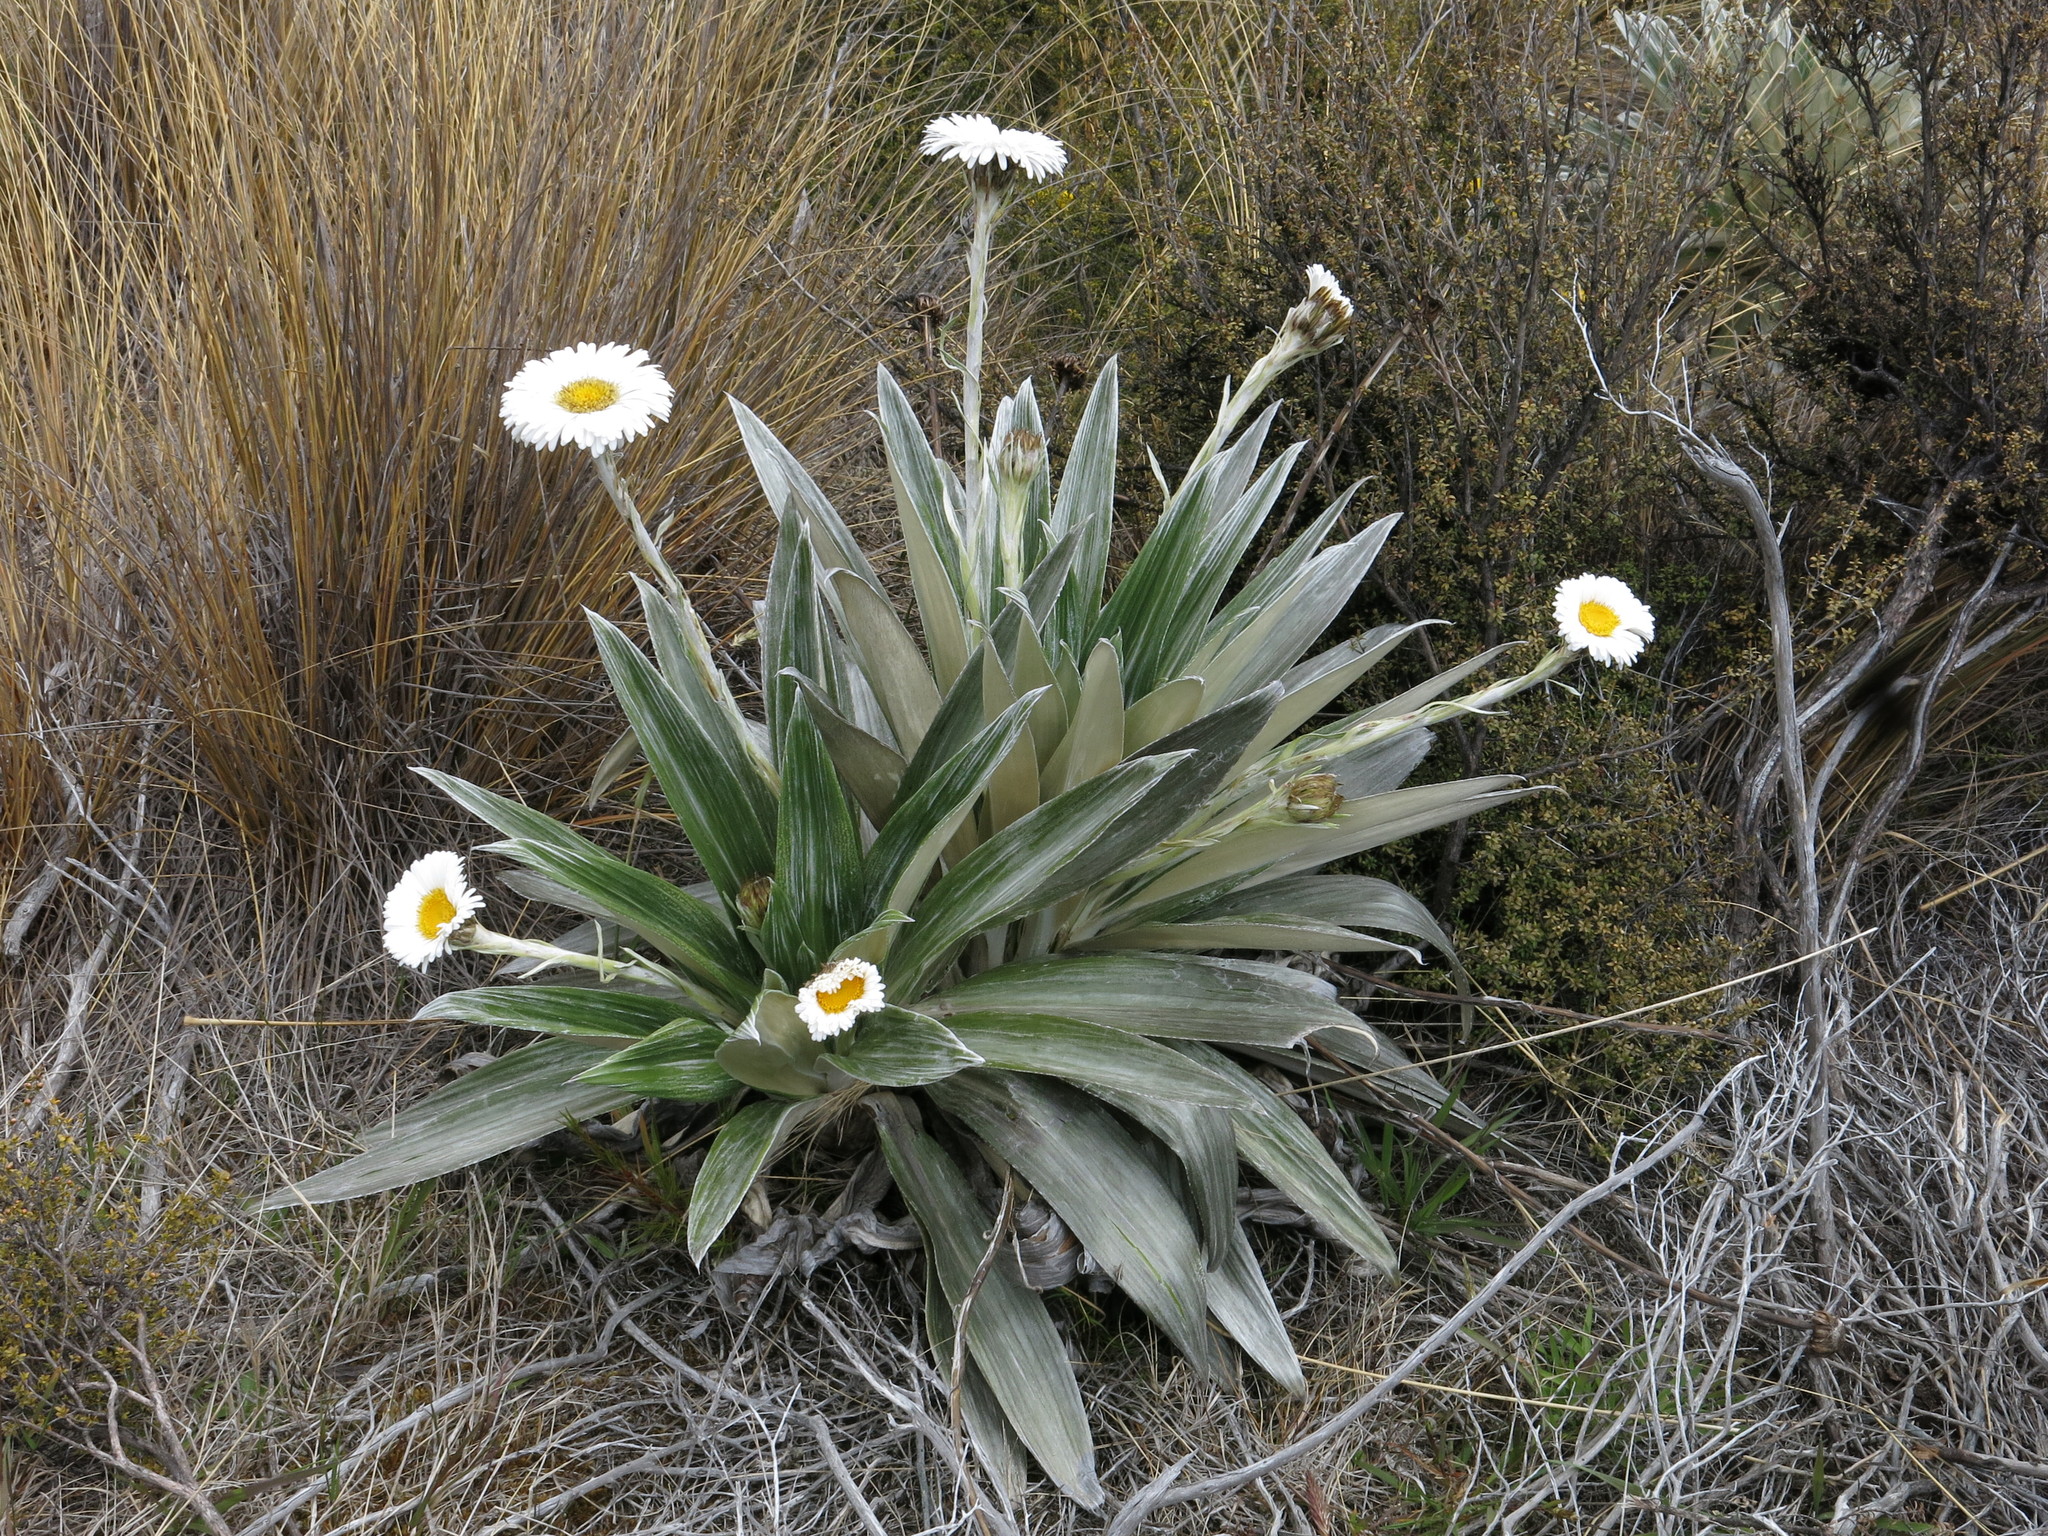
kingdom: Plantae
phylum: Tracheophyta
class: Magnoliopsida
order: Asterales
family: Asteraceae
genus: Celmisia
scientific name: Celmisia semicordata
